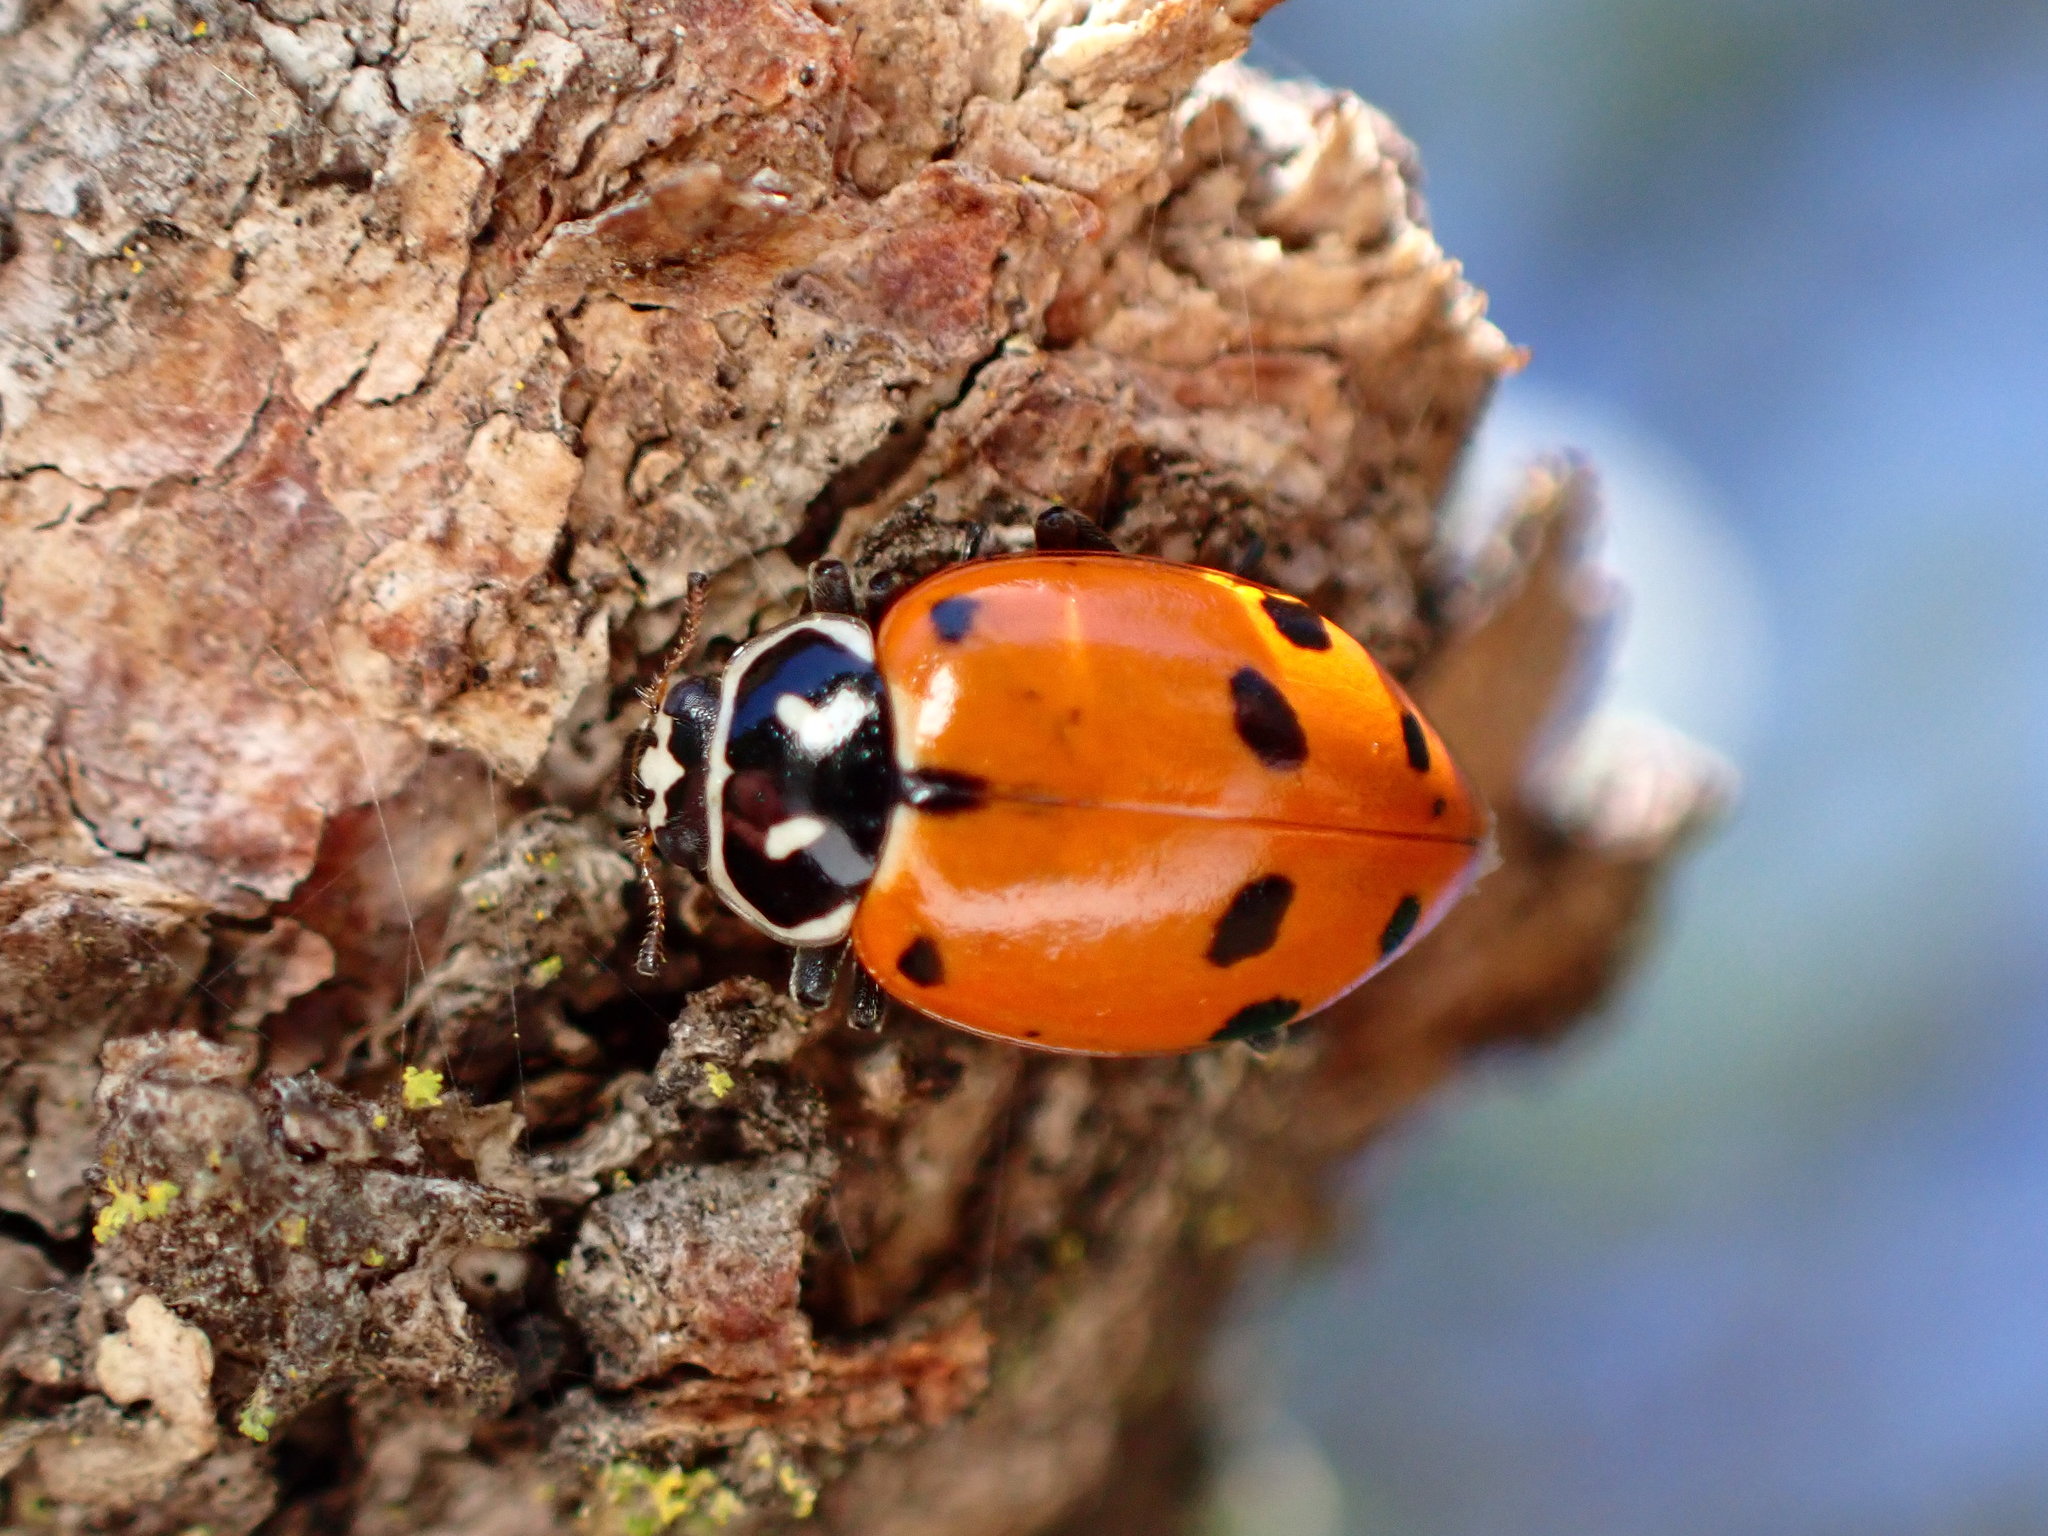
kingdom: Animalia
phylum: Arthropoda
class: Insecta
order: Coleoptera
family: Coccinellidae
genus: Hippodamia
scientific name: Hippodamia convergens
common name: Convergent lady beetle
